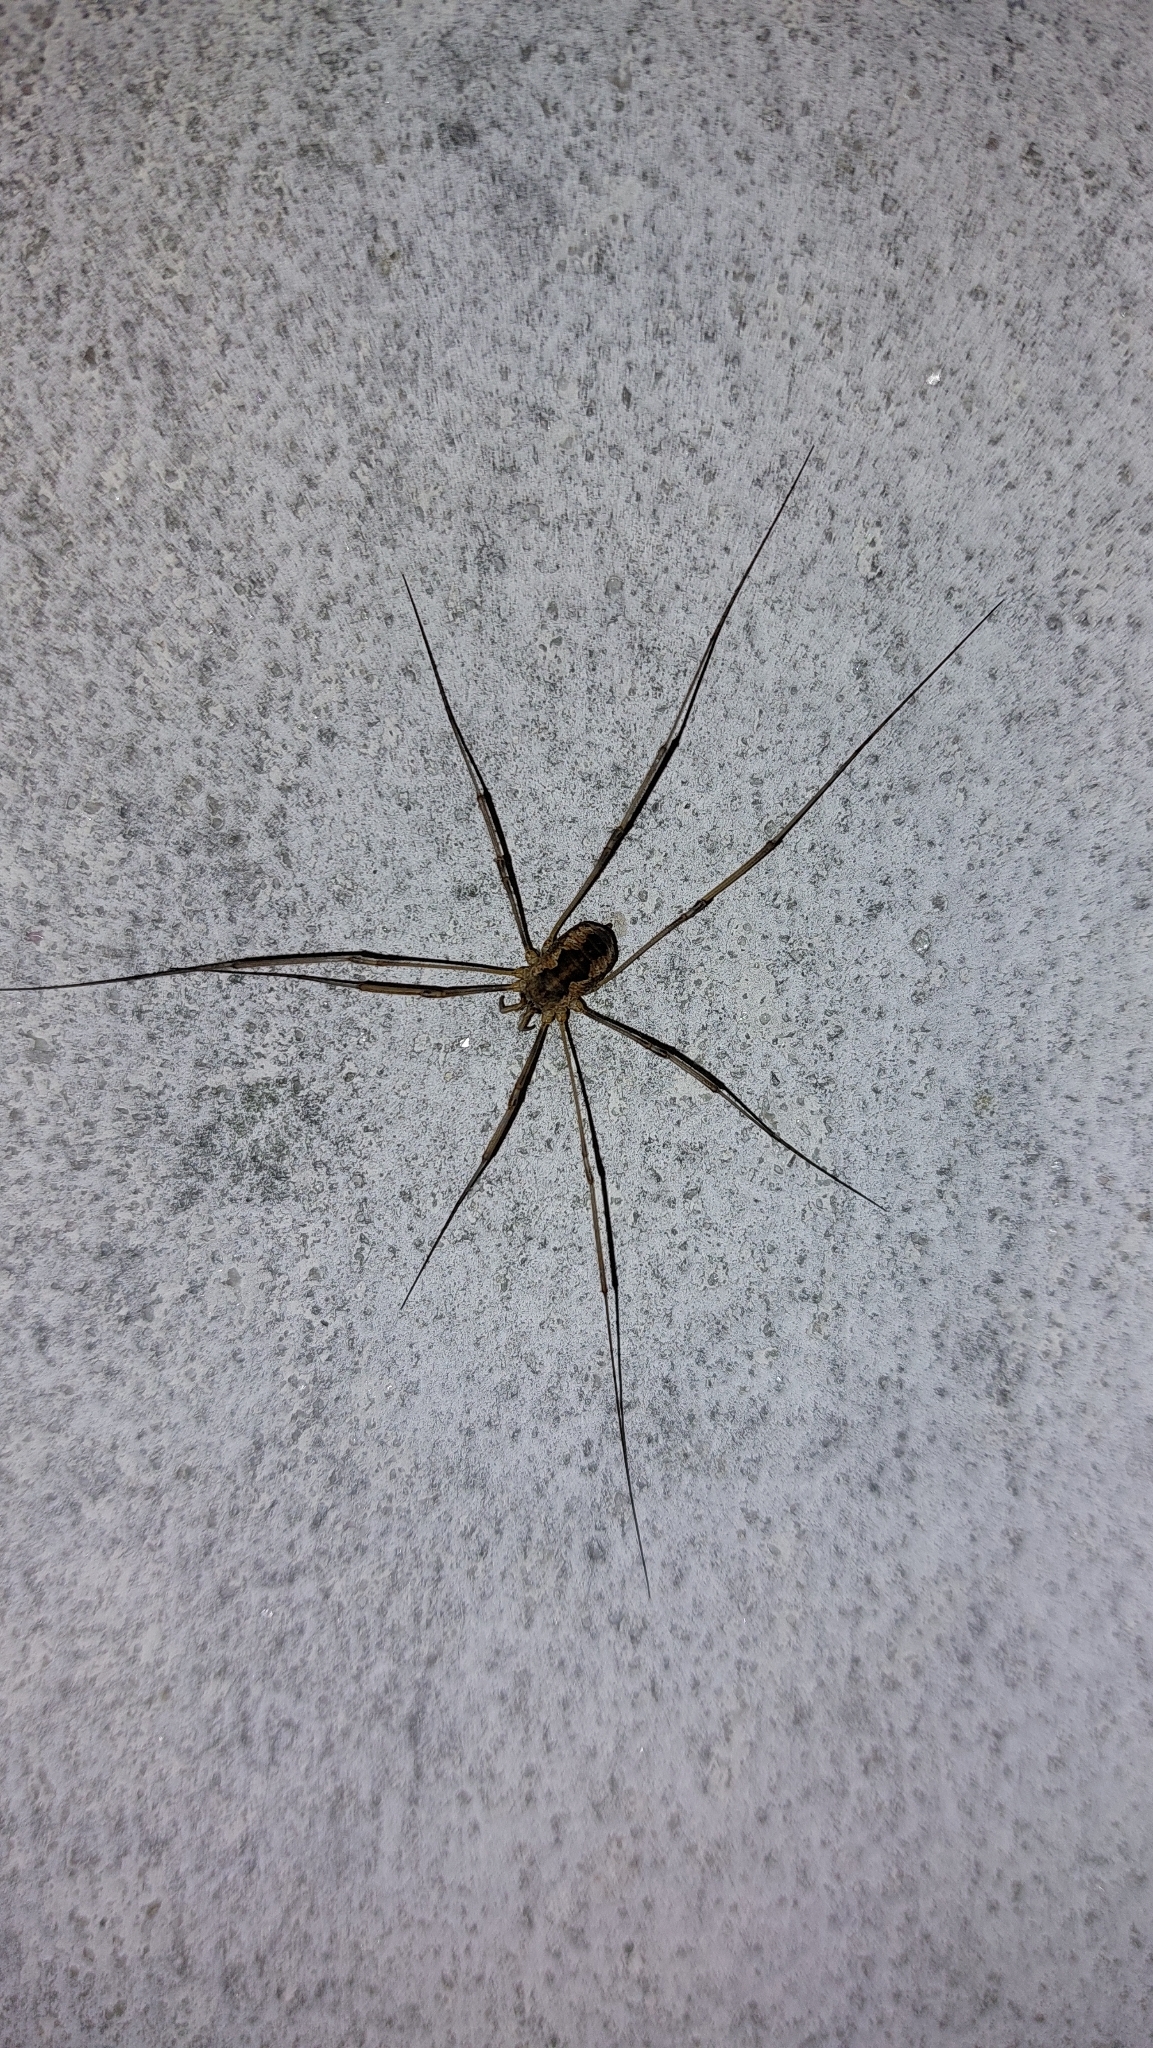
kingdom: Animalia
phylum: Arthropoda
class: Arachnida
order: Opiliones
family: Phalangiidae
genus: Phalangium
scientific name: Phalangium opilio
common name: Daddy longleg
